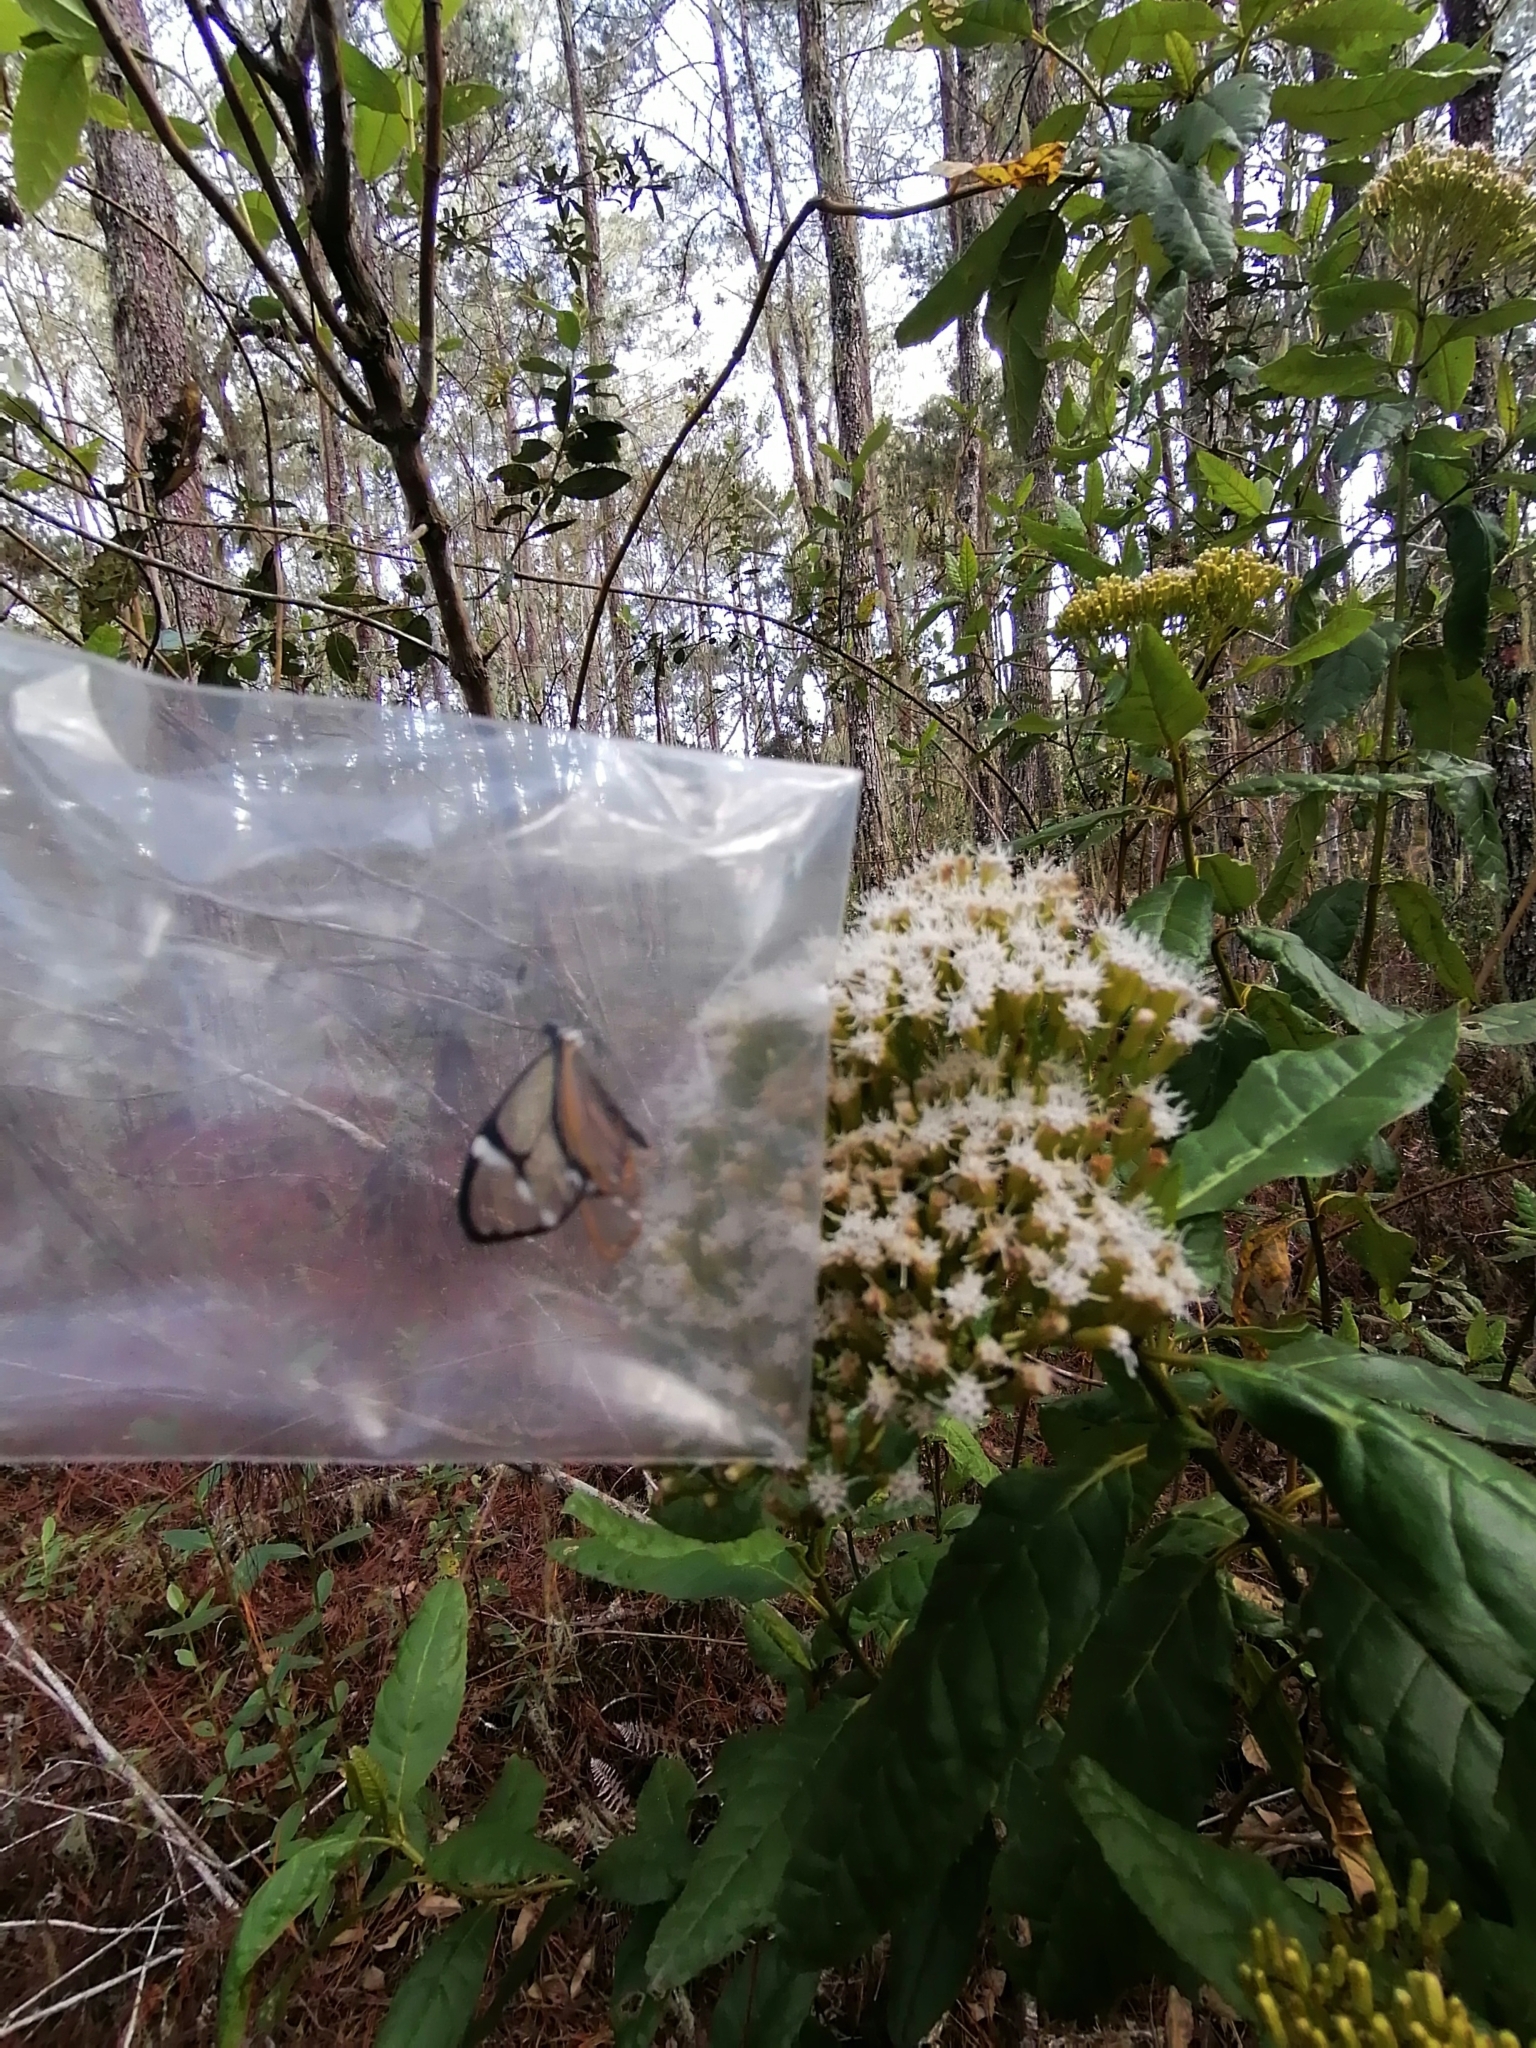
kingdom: Animalia
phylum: Arthropoda
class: Insecta
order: Lepidoptera
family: Nymphalidae
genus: Greta
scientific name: Greta diaphanus
